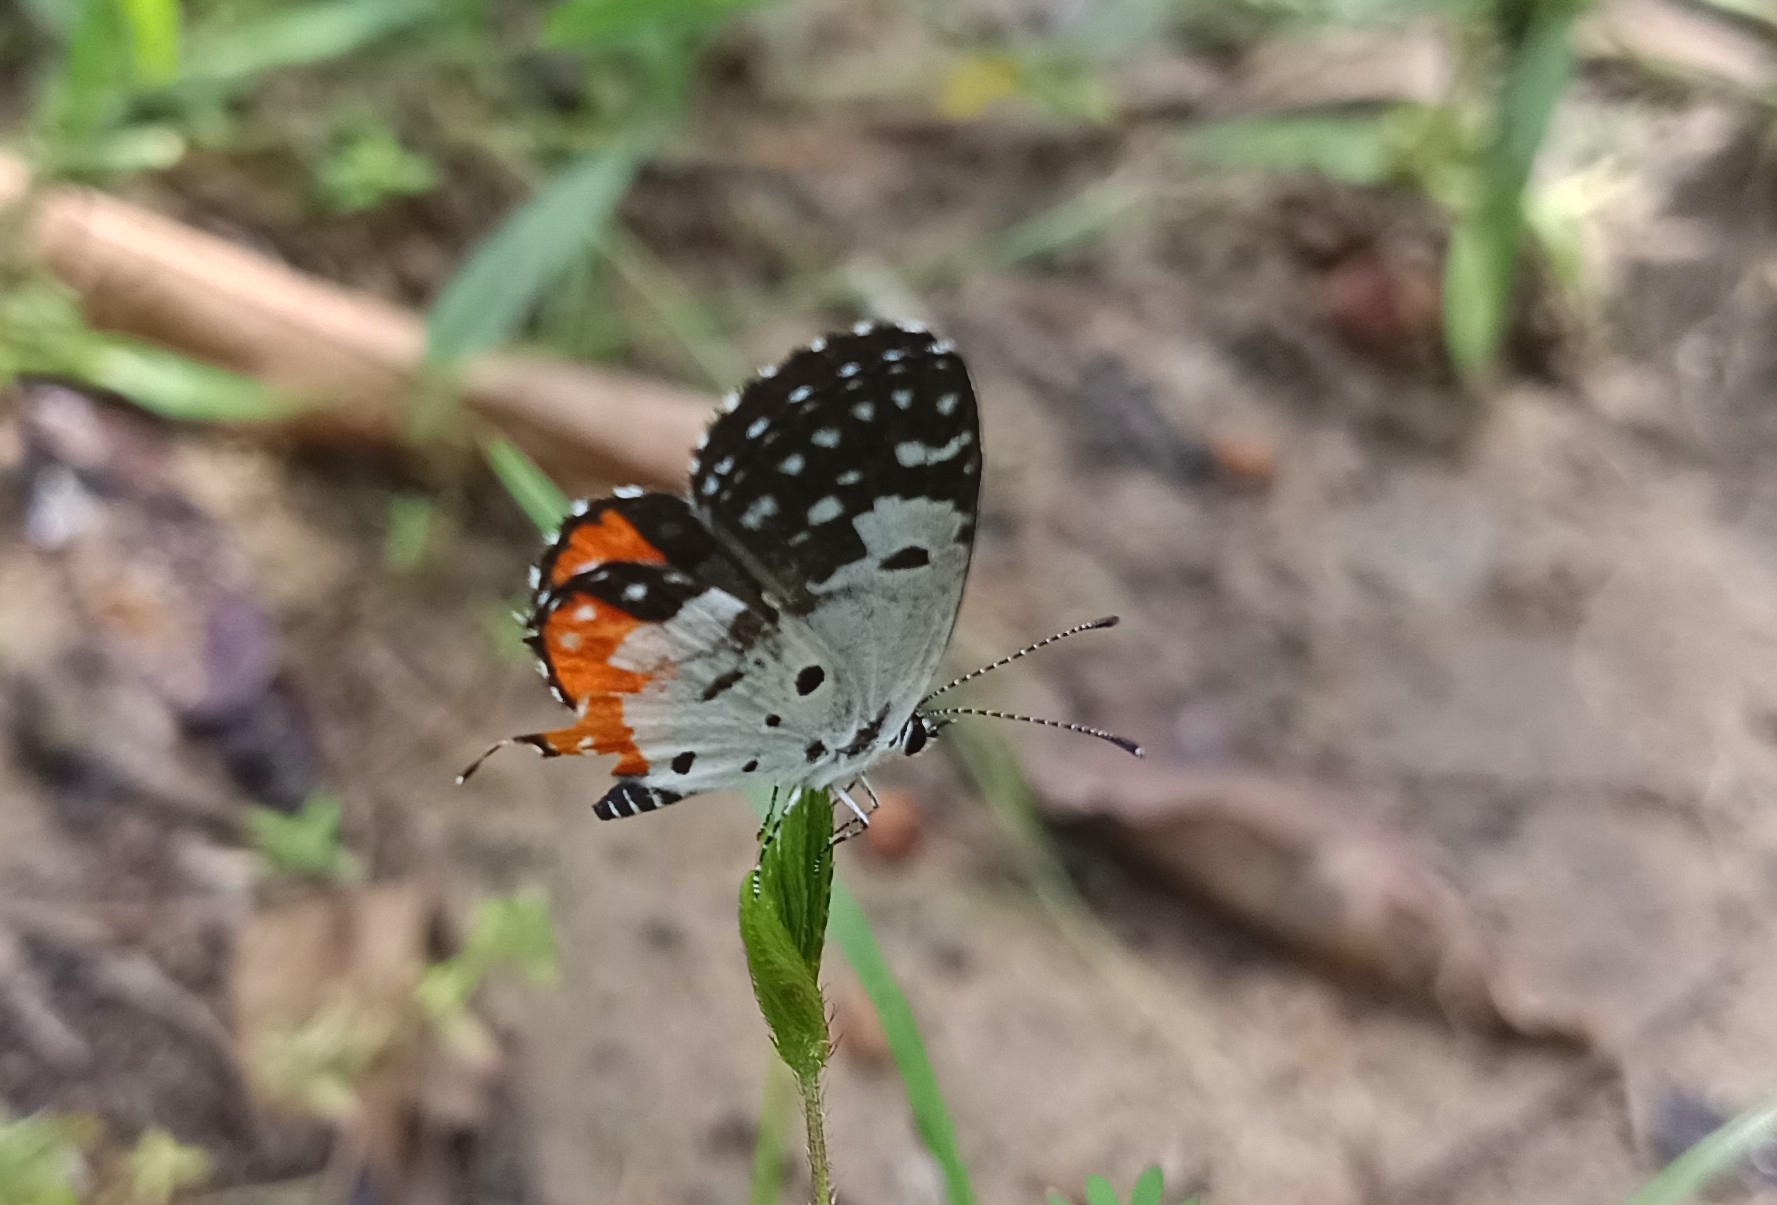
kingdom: Animalia
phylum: Arthropoda
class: Insecta
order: Lepidoptera
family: Lycaenidae
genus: Talicada
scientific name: Talicada nyseus
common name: Red pierrot
